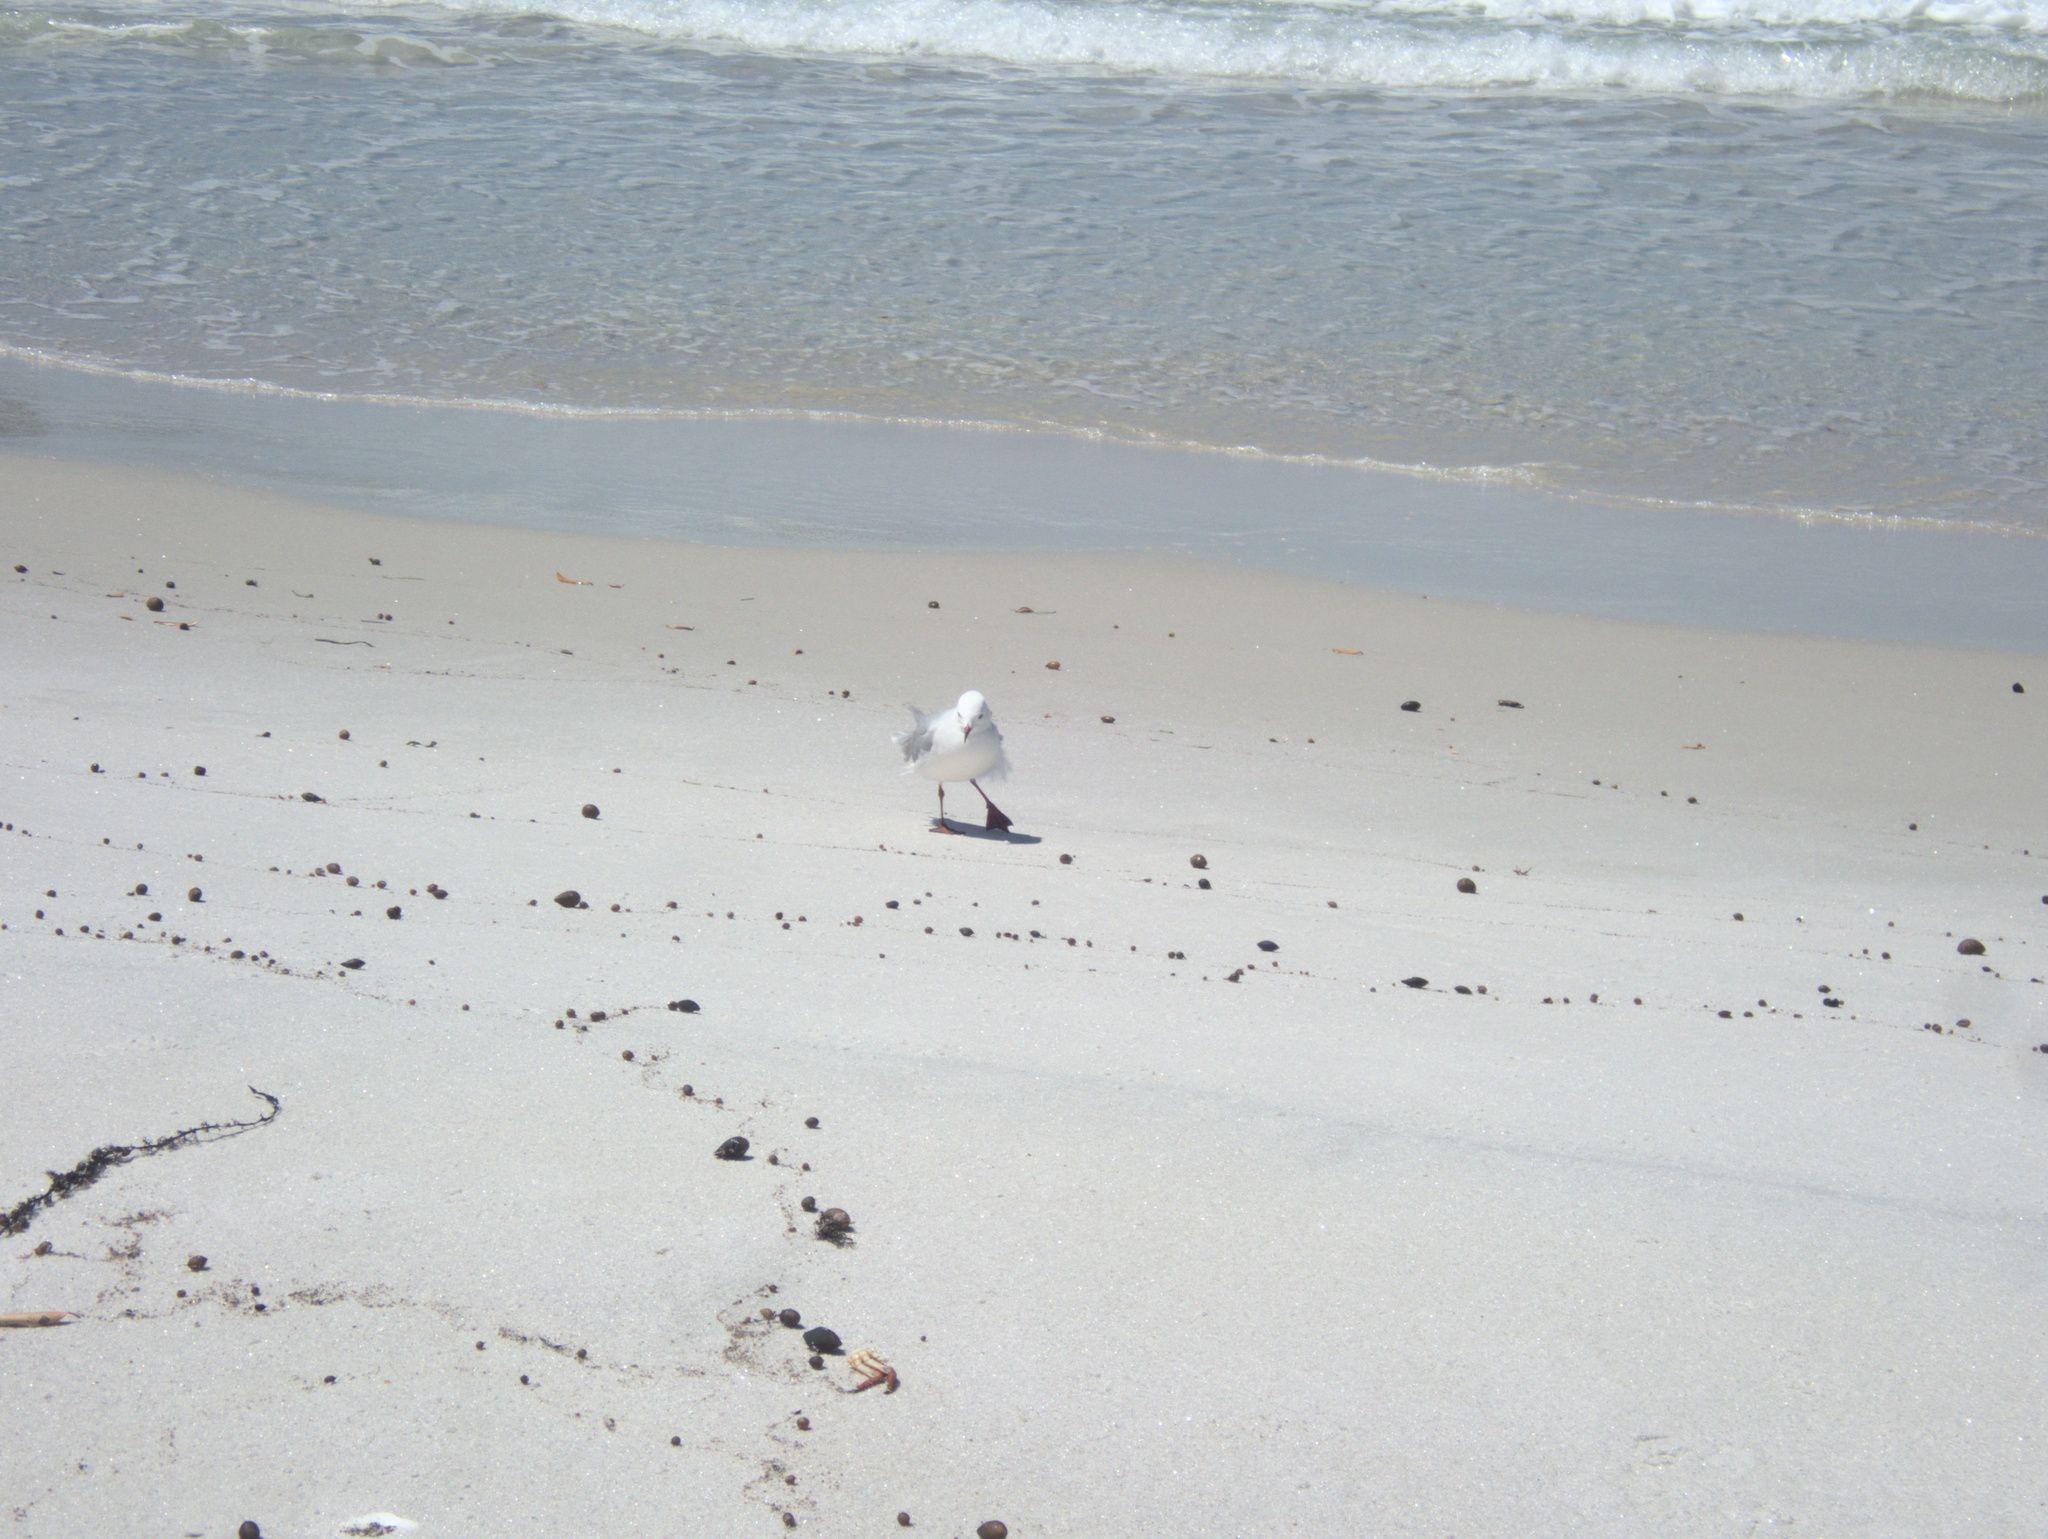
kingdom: Animalia
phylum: Chordata
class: Aves
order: Charadriiformes
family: Laridae
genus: Chroicocephalus
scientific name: Chroicocephalus novaehollandiae
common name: Silver gull
